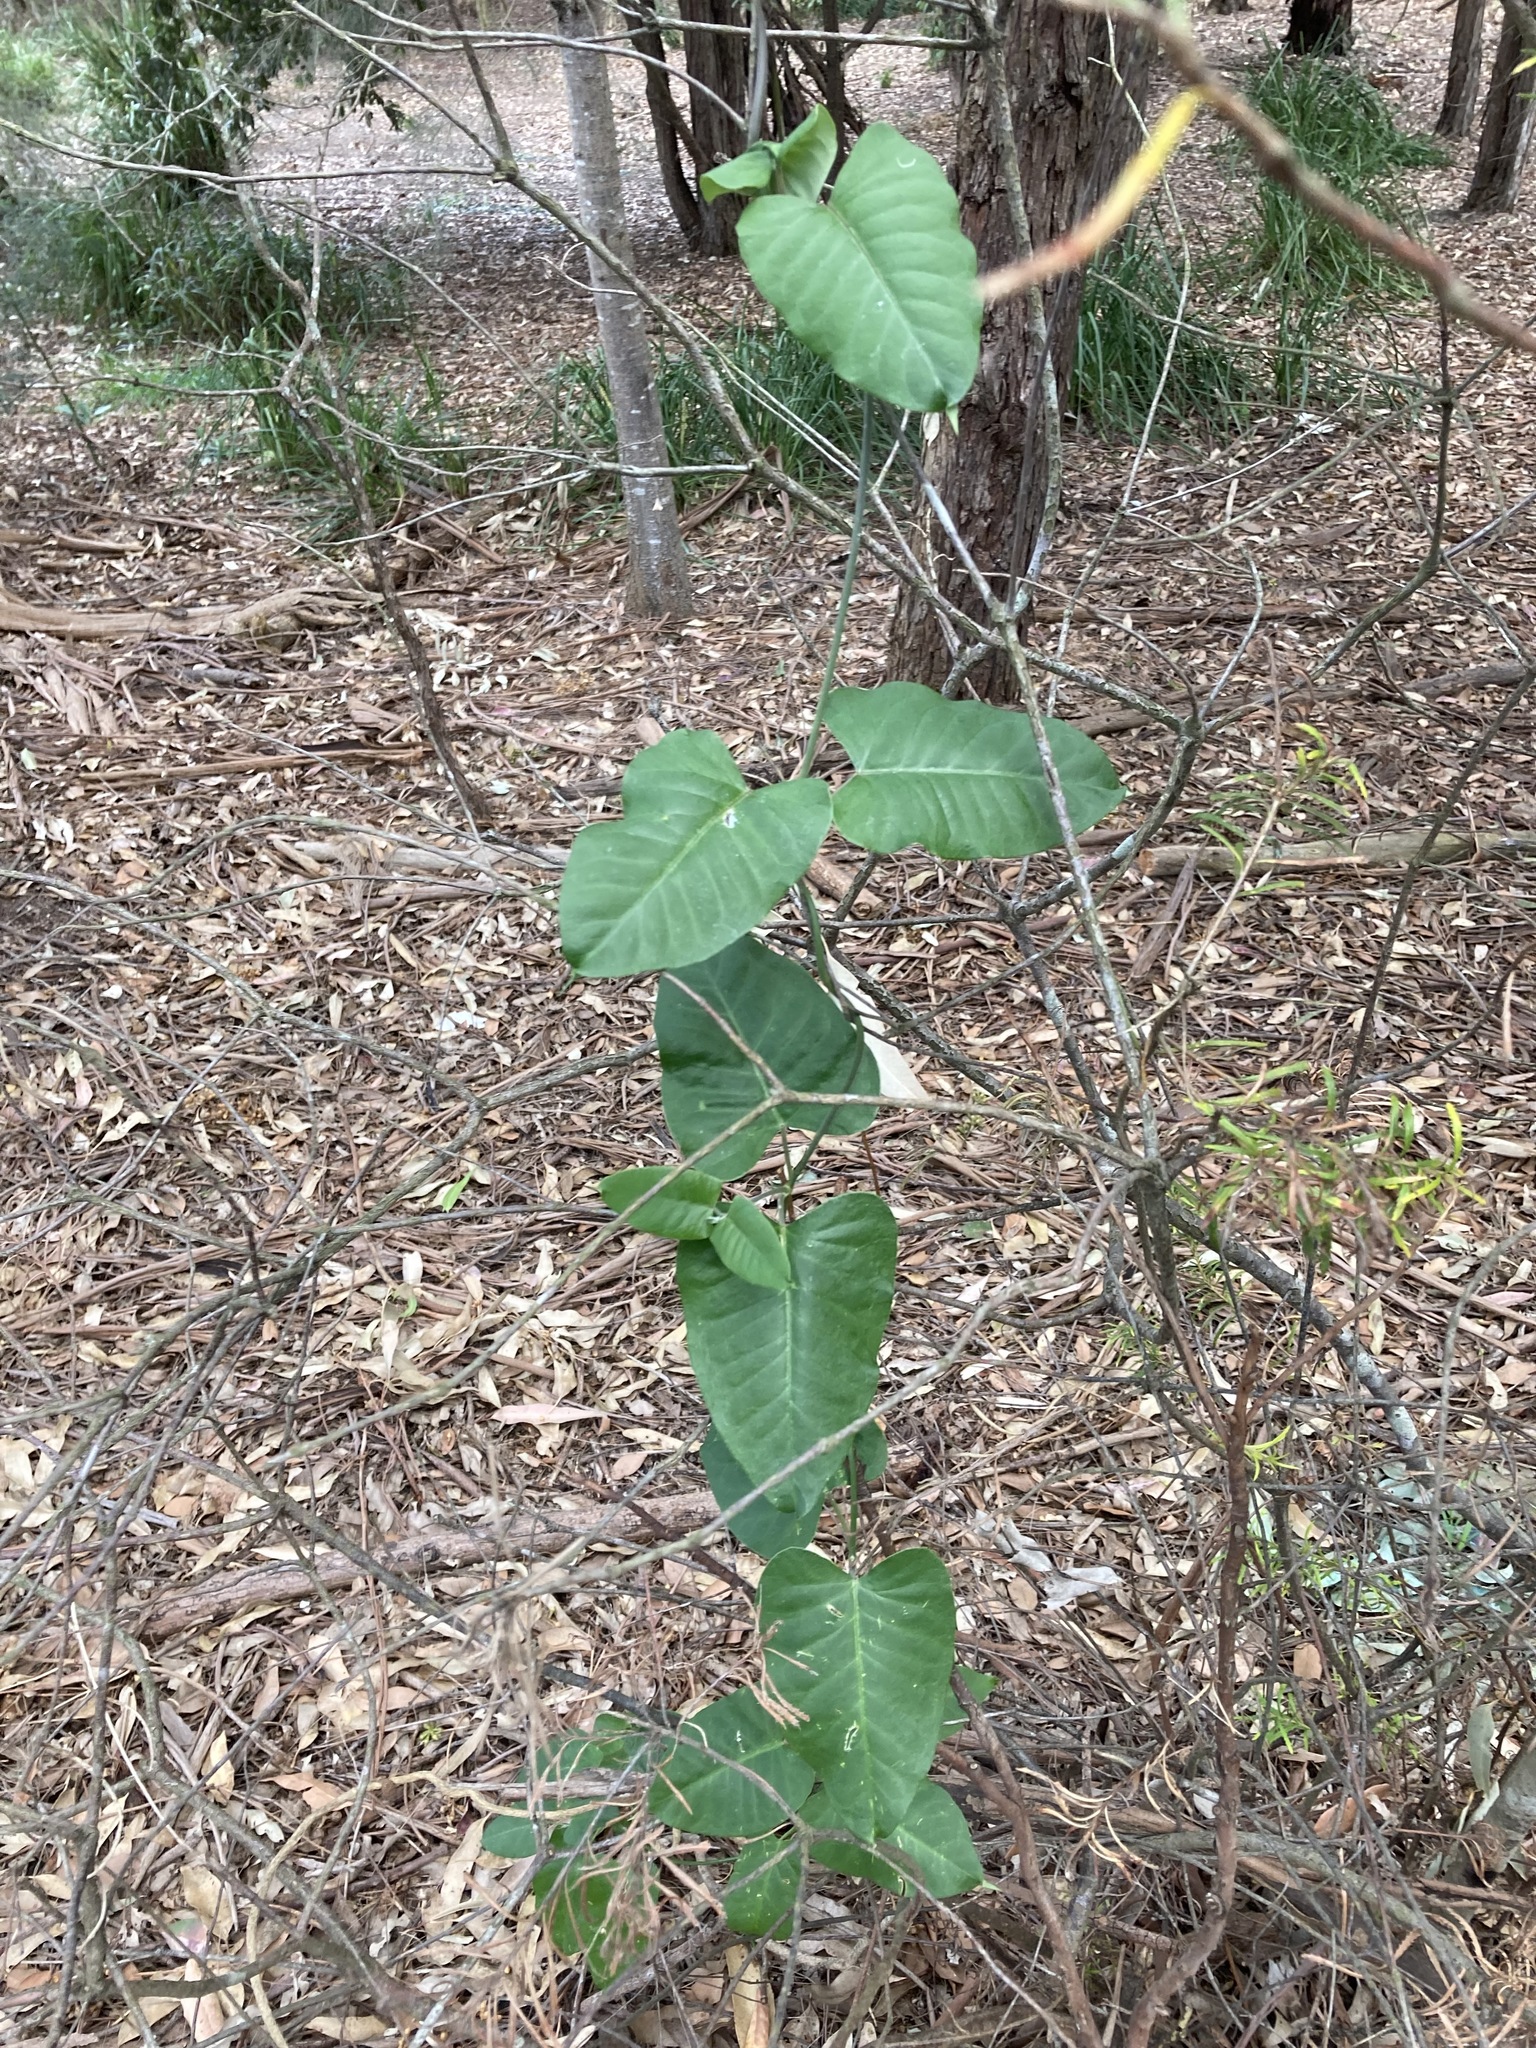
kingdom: Plantae
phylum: Tracheophyta
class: Magnoliopsida
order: Gentianales
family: Apocynaceae
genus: Araujia
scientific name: Araujia sericifera
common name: White bladderflower
